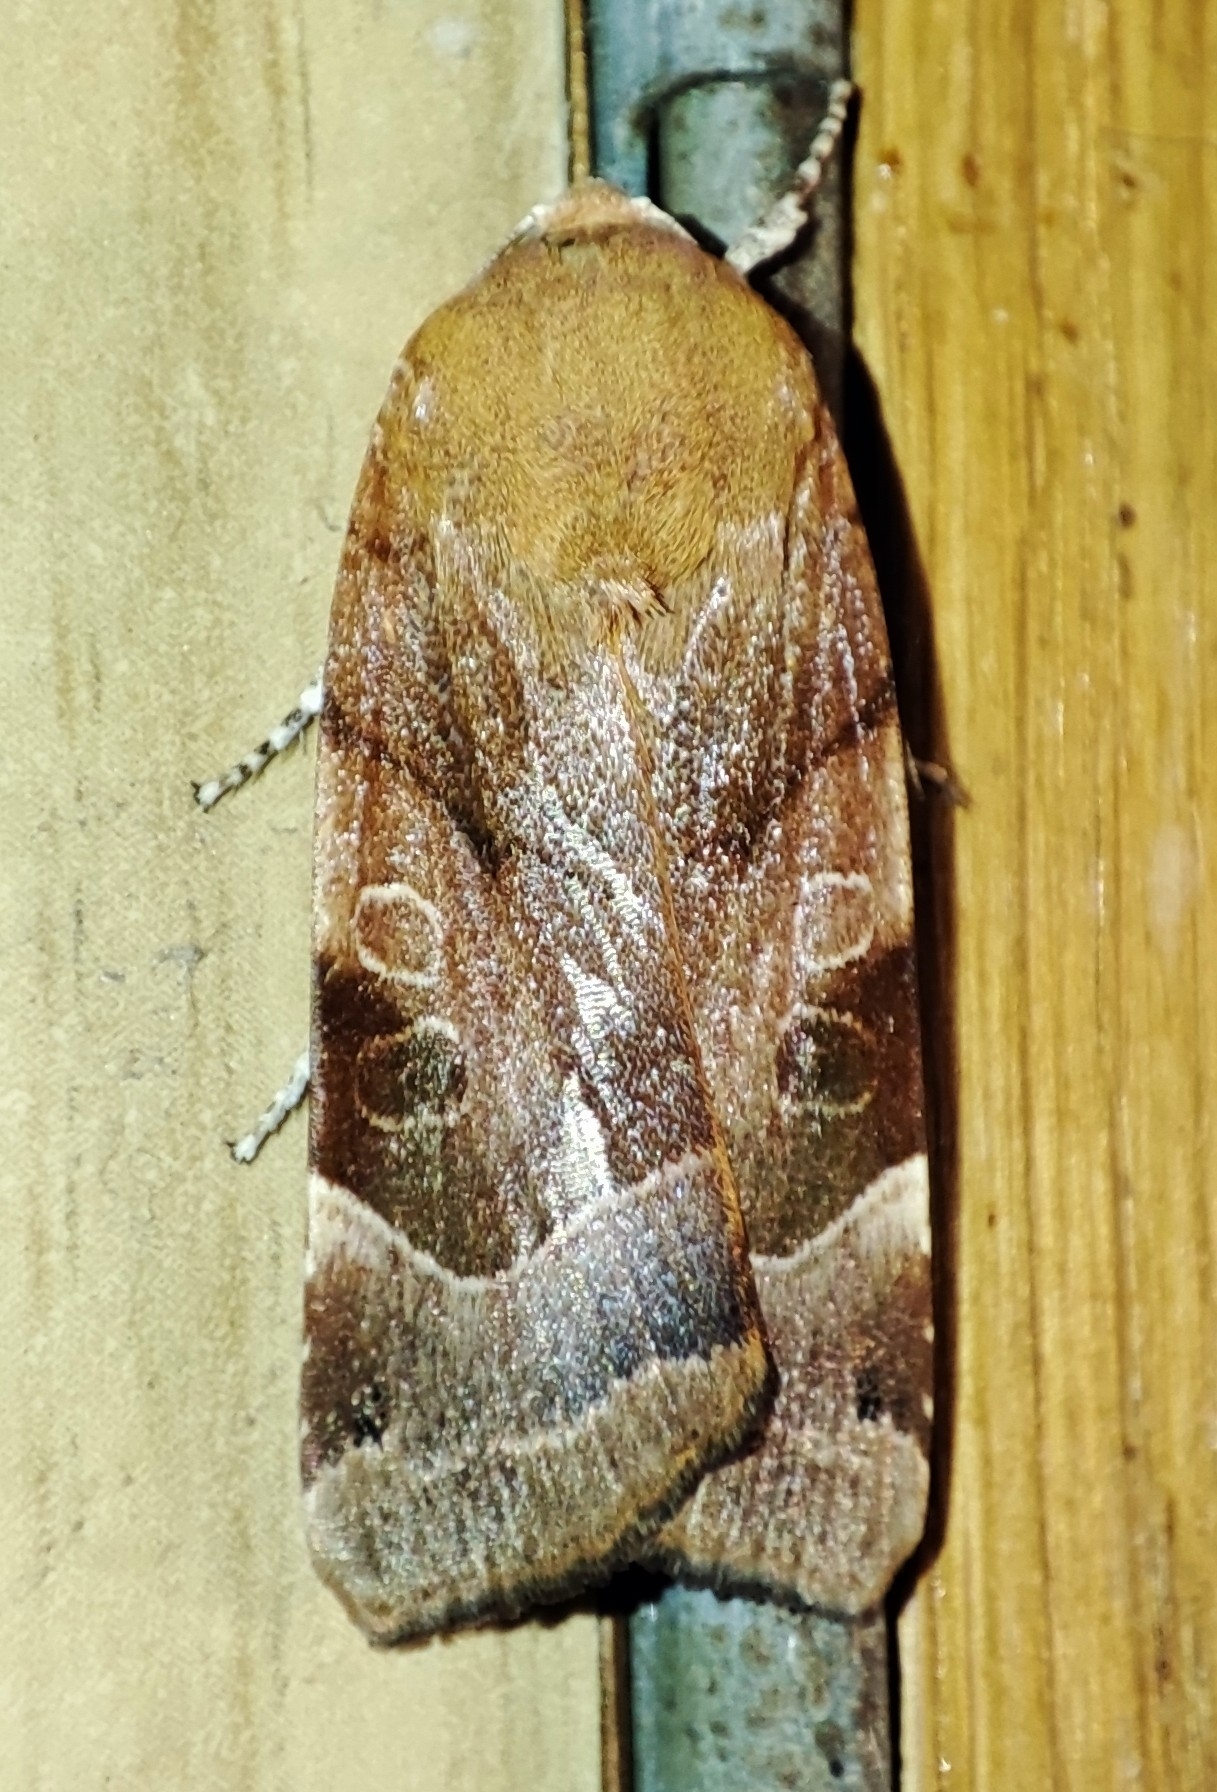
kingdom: Animalia
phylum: Arthropoda
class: Insecta
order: Lepidoptera
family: Noctuidae
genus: Noctua
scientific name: Noctua fimbriata
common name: Broad-bordered yellow underwing
